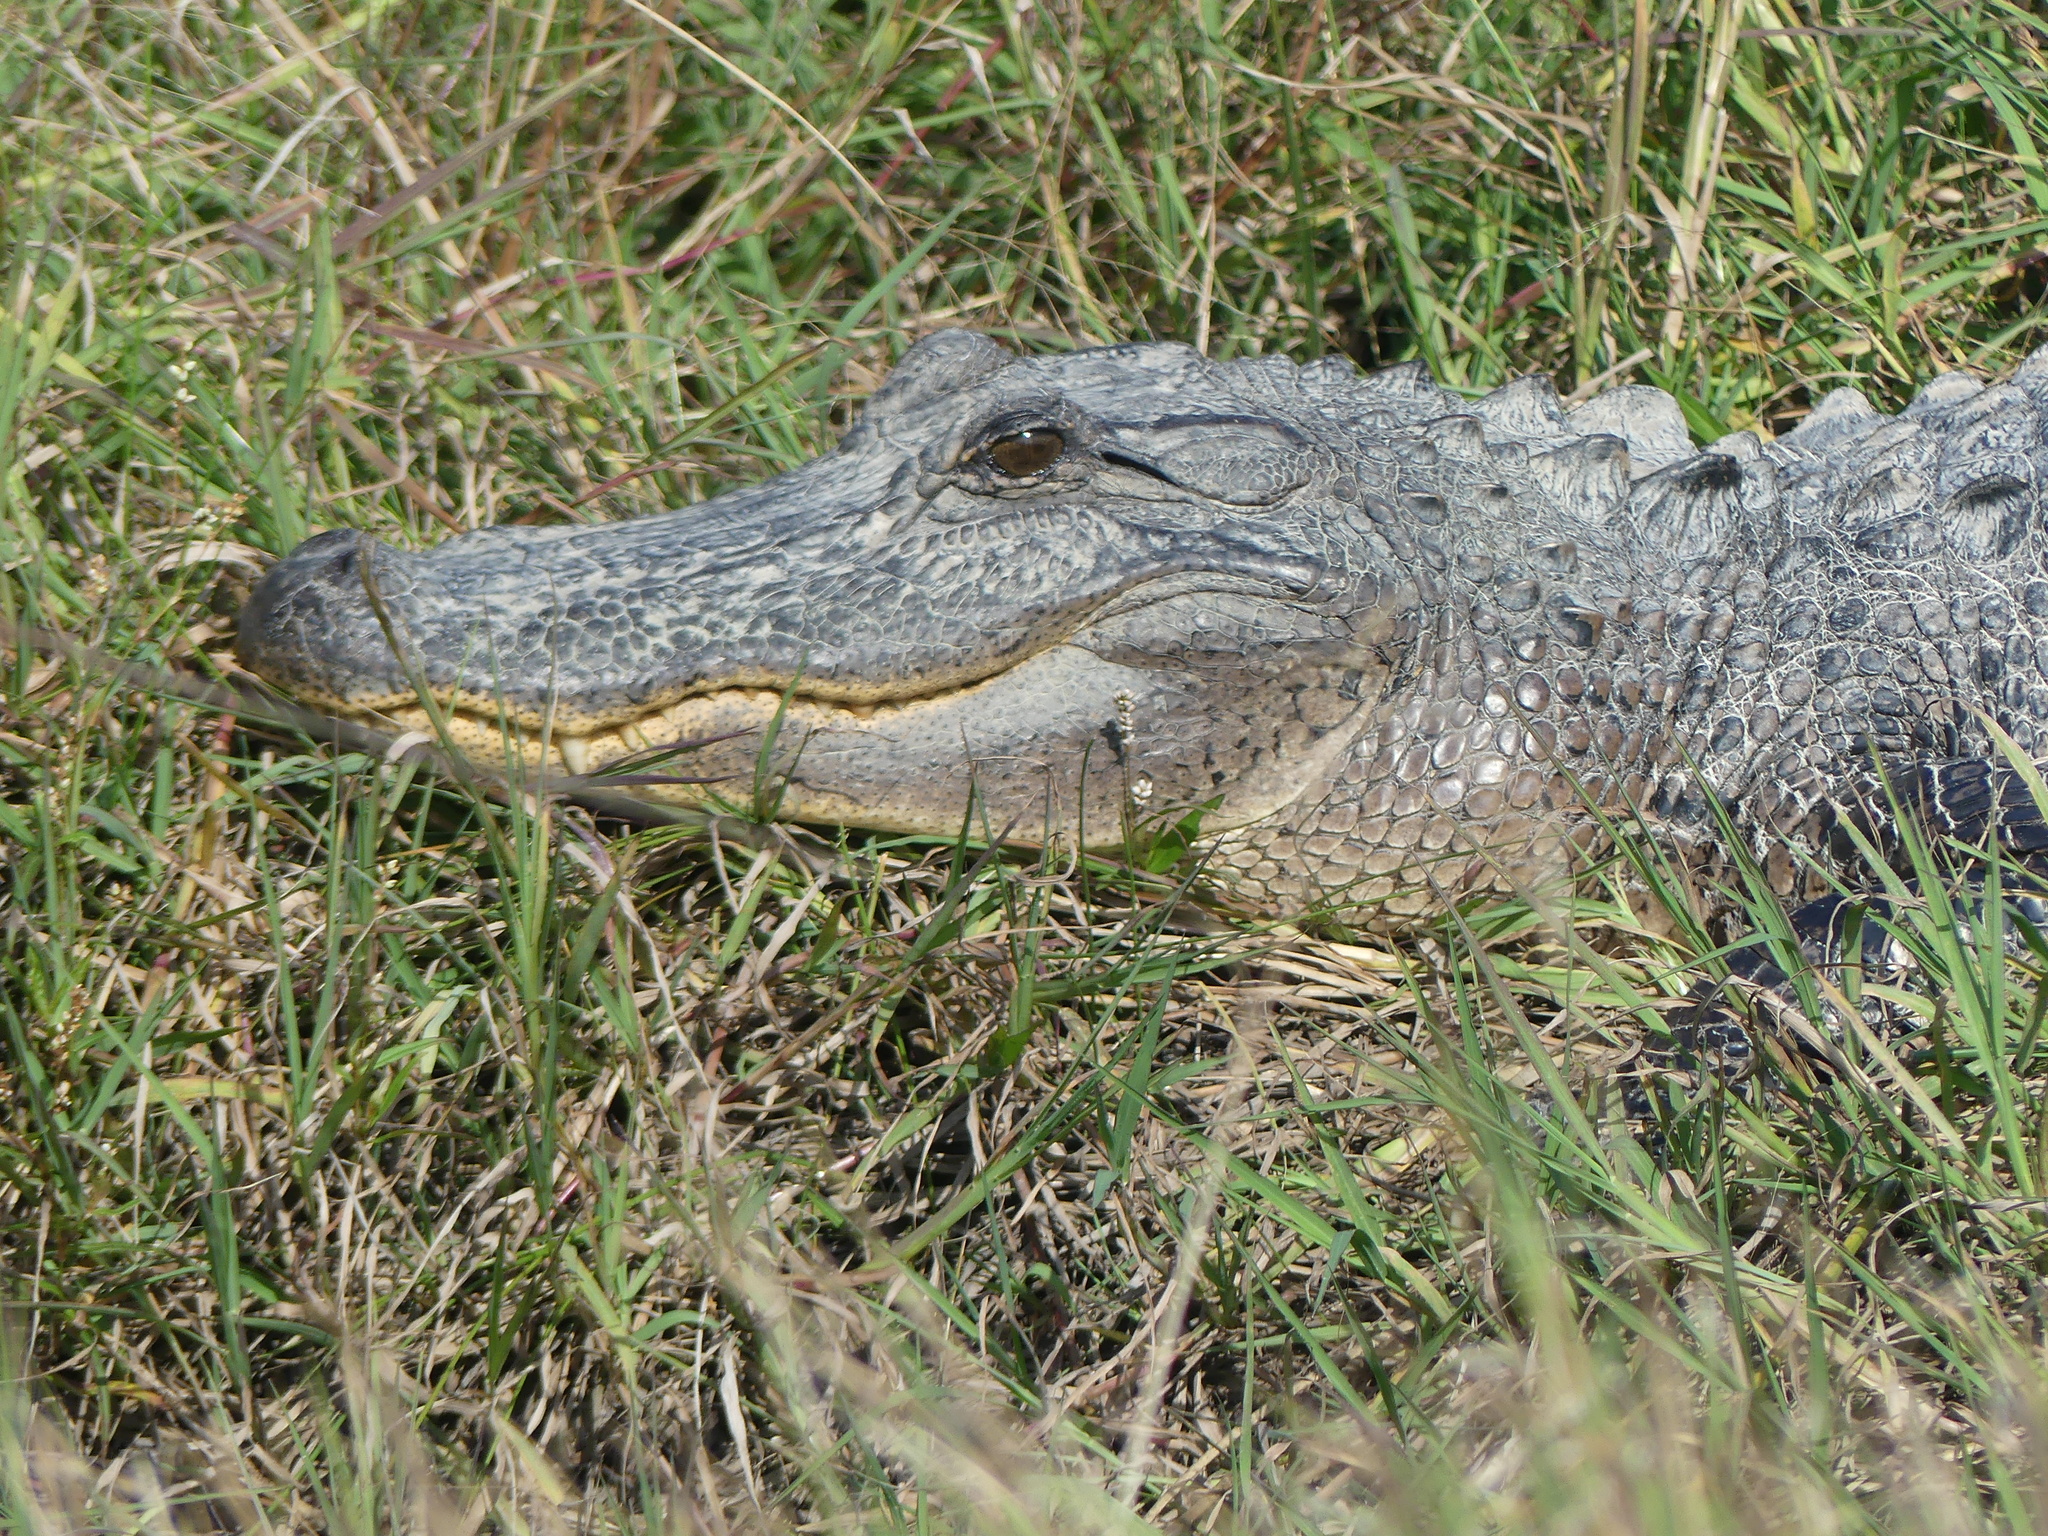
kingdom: Animalia
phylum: Chordata
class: Crocodylia
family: Alligatoridae
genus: Alligator
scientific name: Alligator mississippiensis
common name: American alligator
